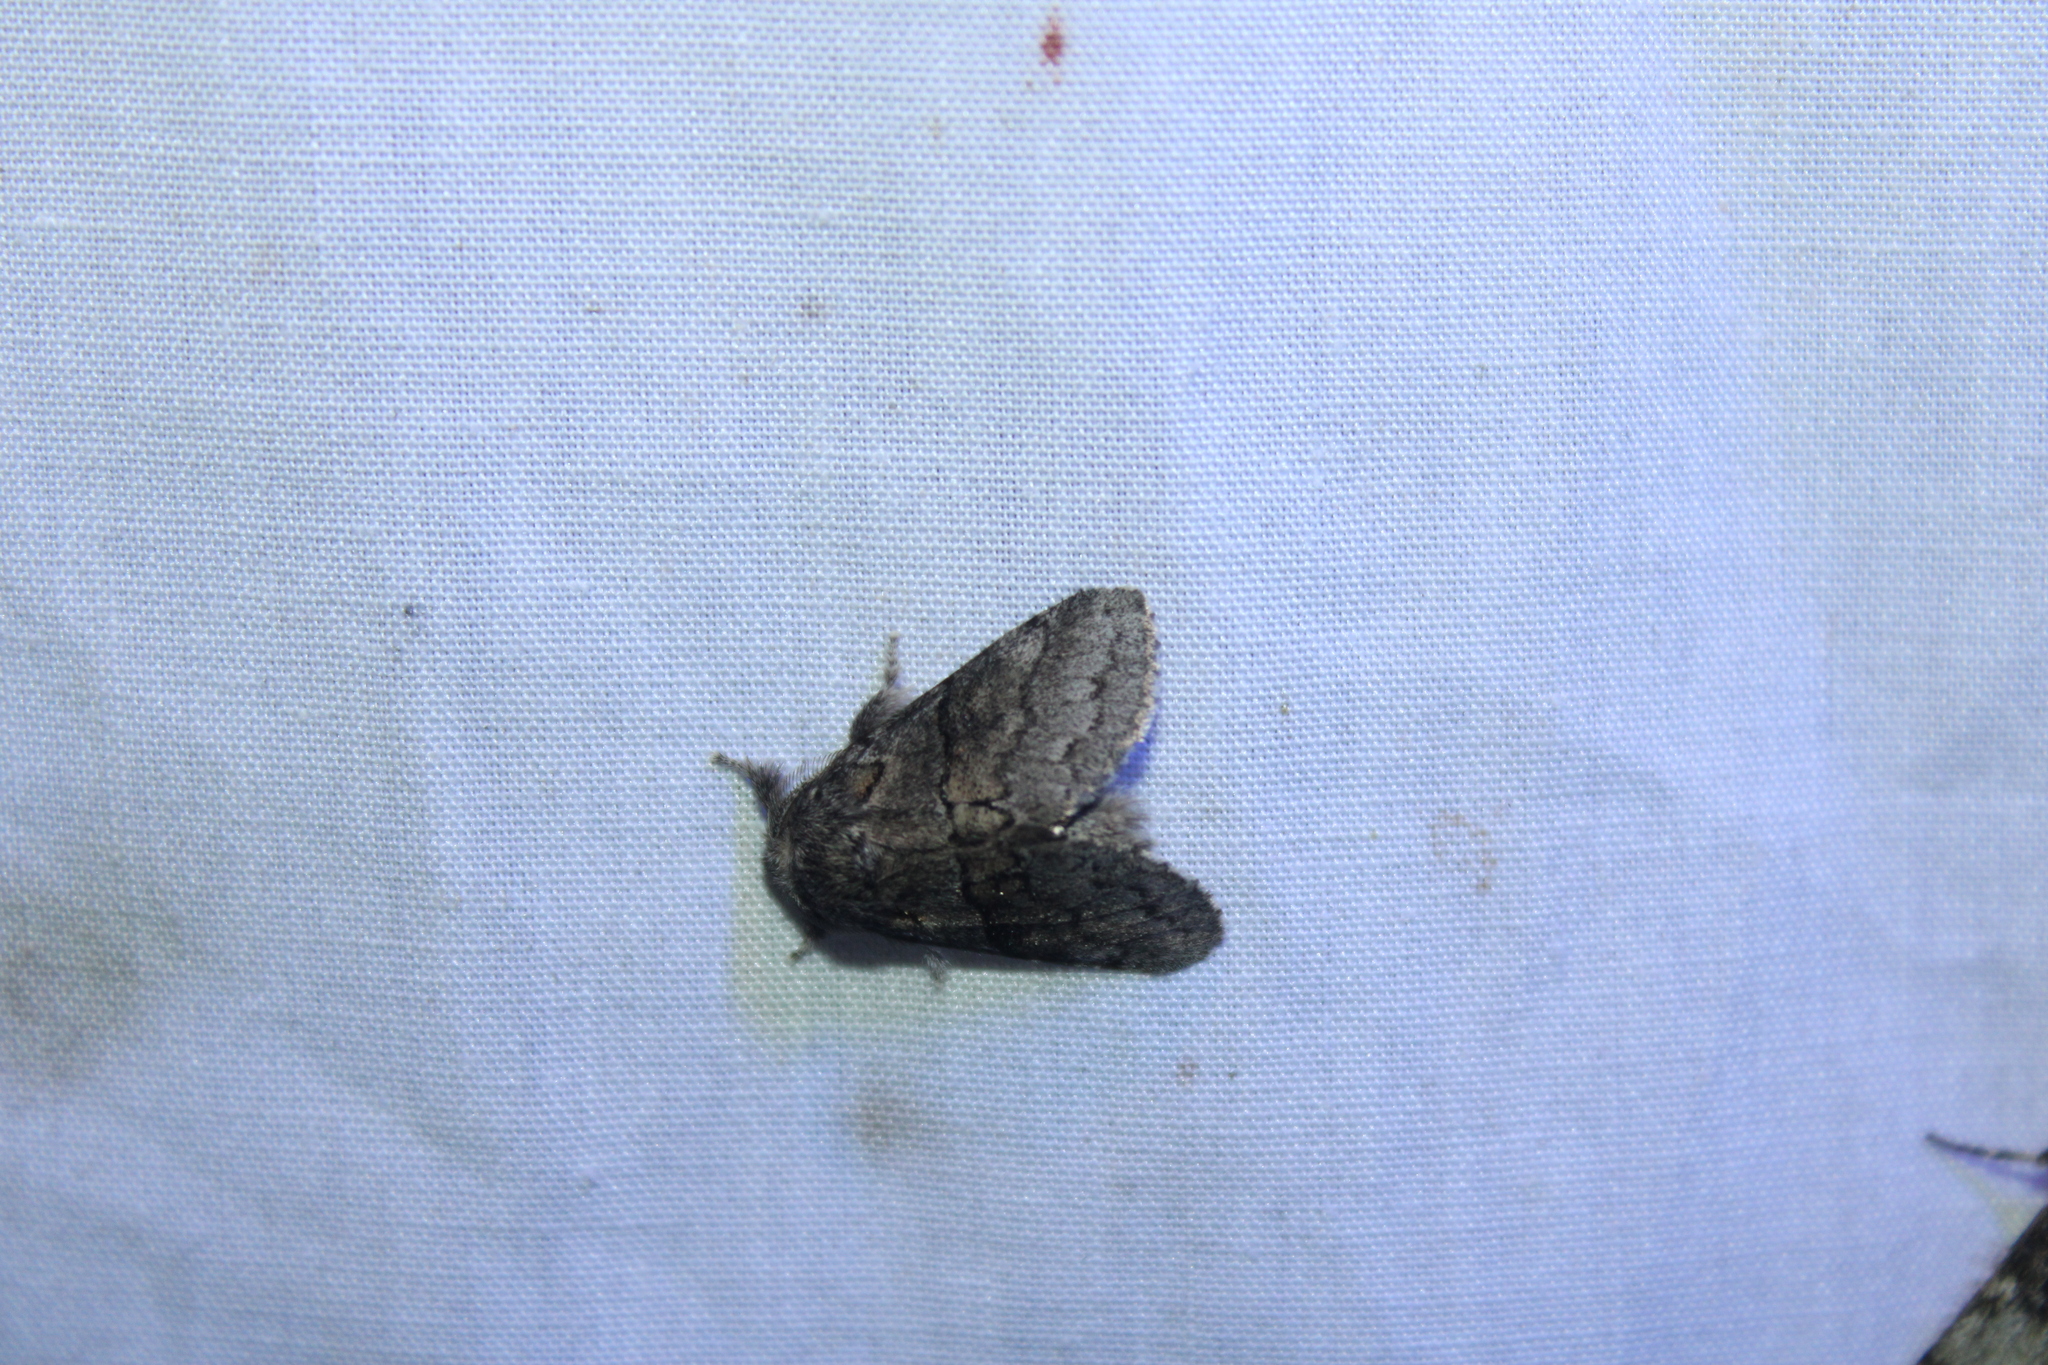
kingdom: Animalia
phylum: Arthropoda
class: Insecta
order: Lepidoptera
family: Notodontidae
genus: Gluphisia
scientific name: Gluphisia septentrionis
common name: Common gluphisia
